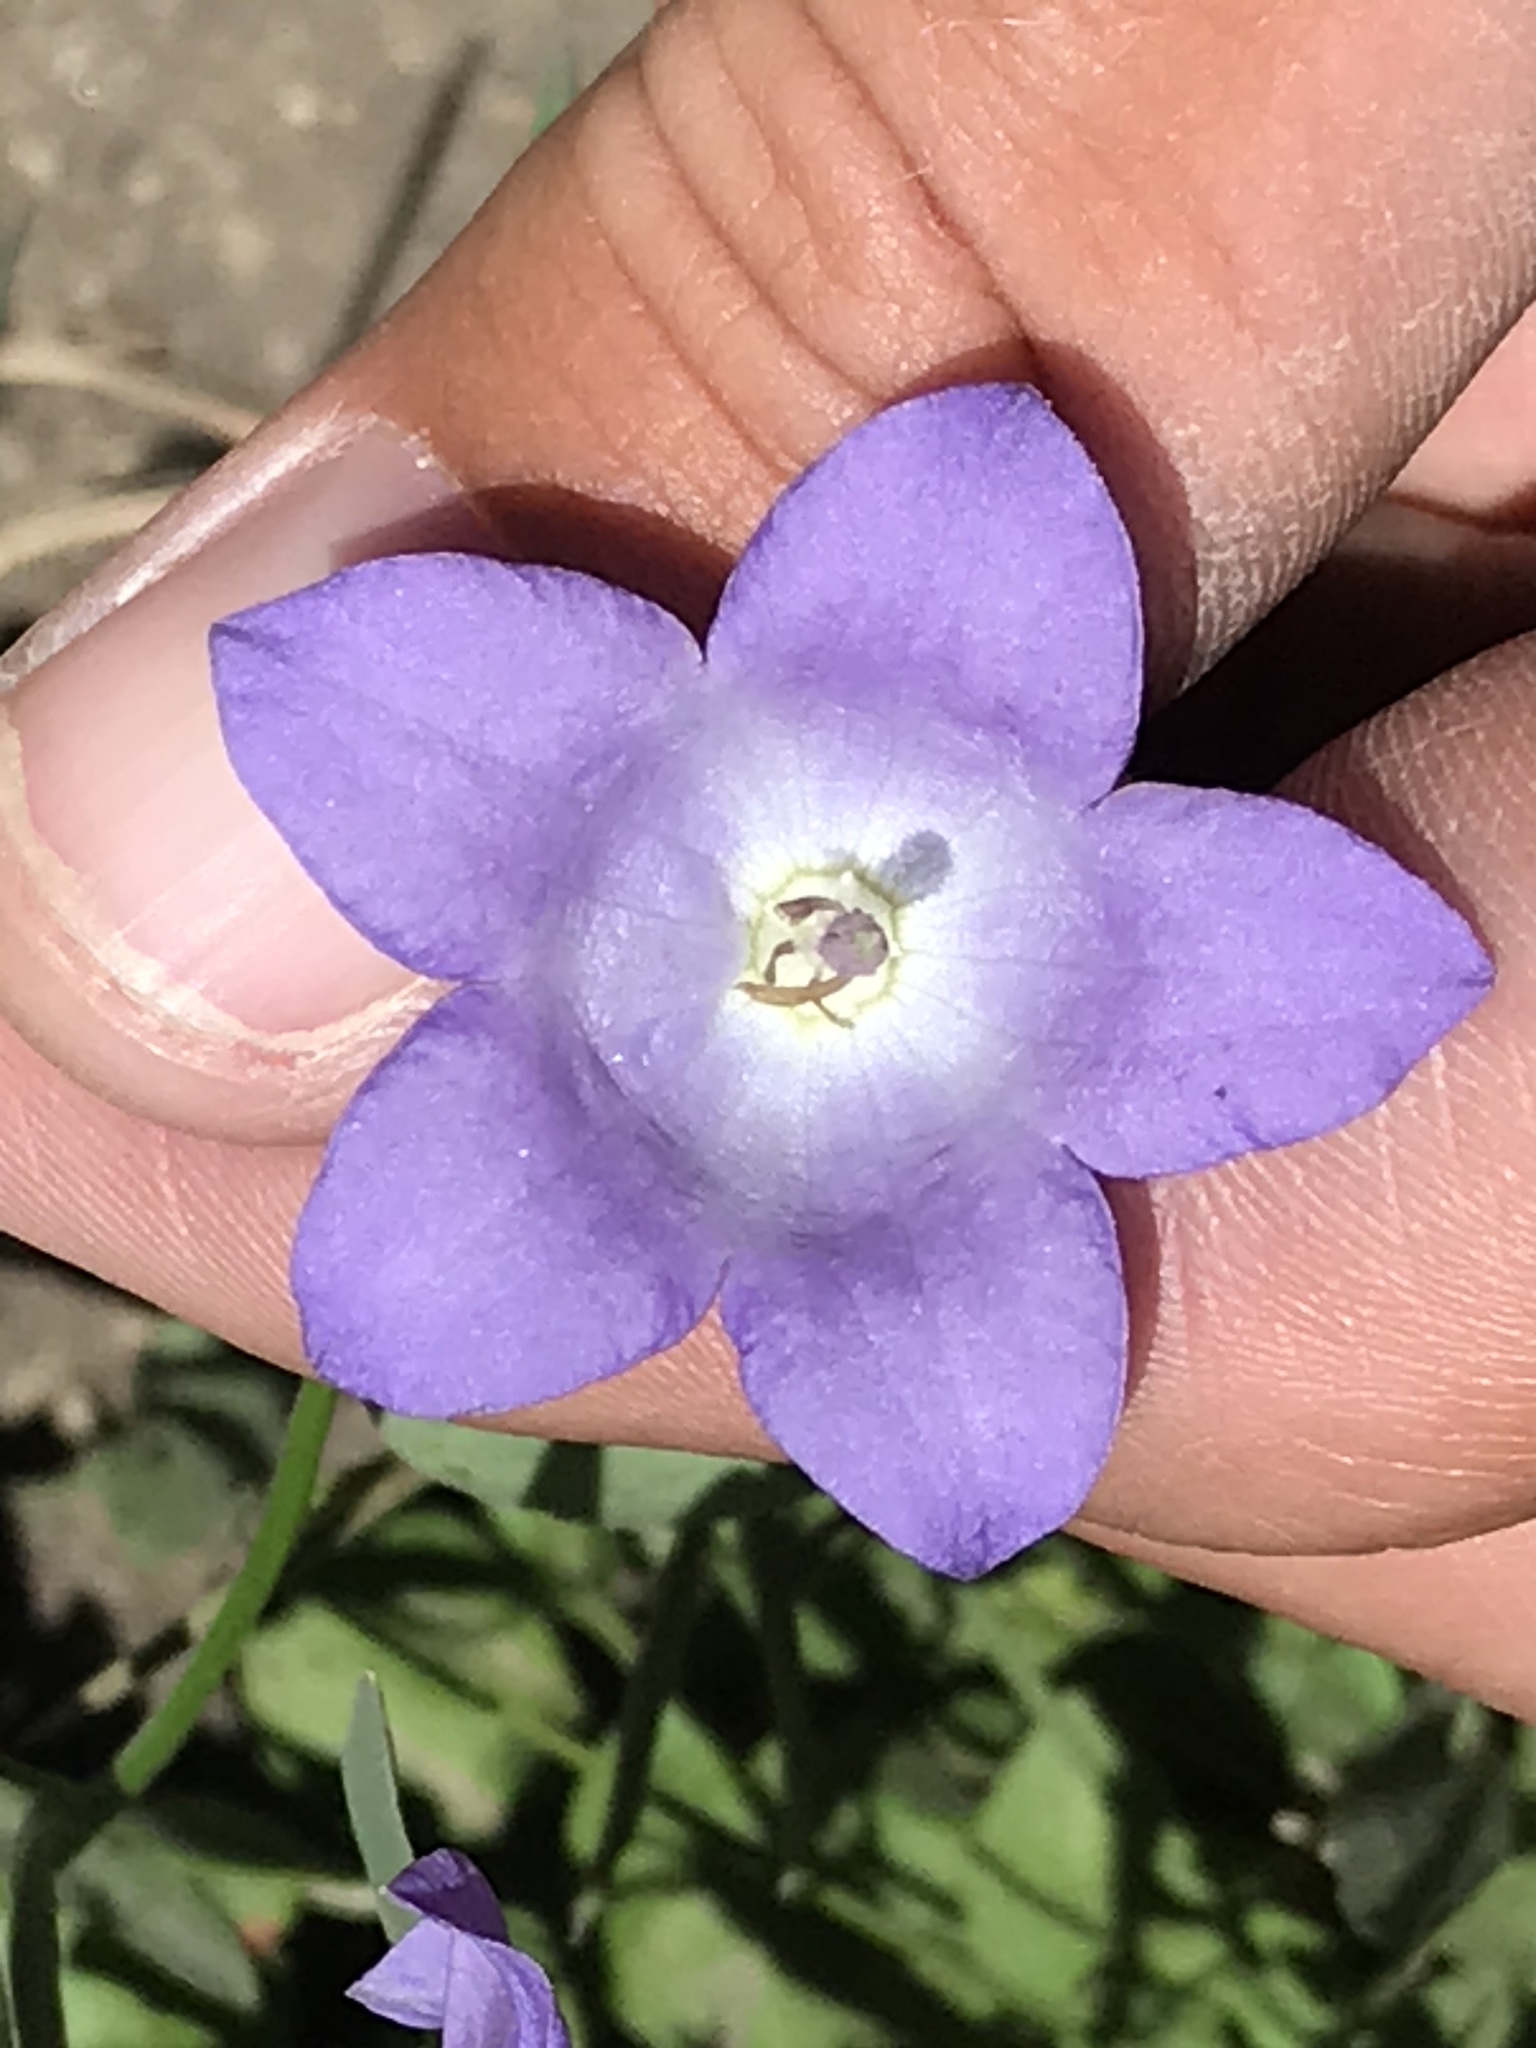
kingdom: Plantae
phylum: Tracheophyta
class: Magnoliopsida
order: Asterales
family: Campanulaceae
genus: Campanula
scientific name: Campanula petiolata
